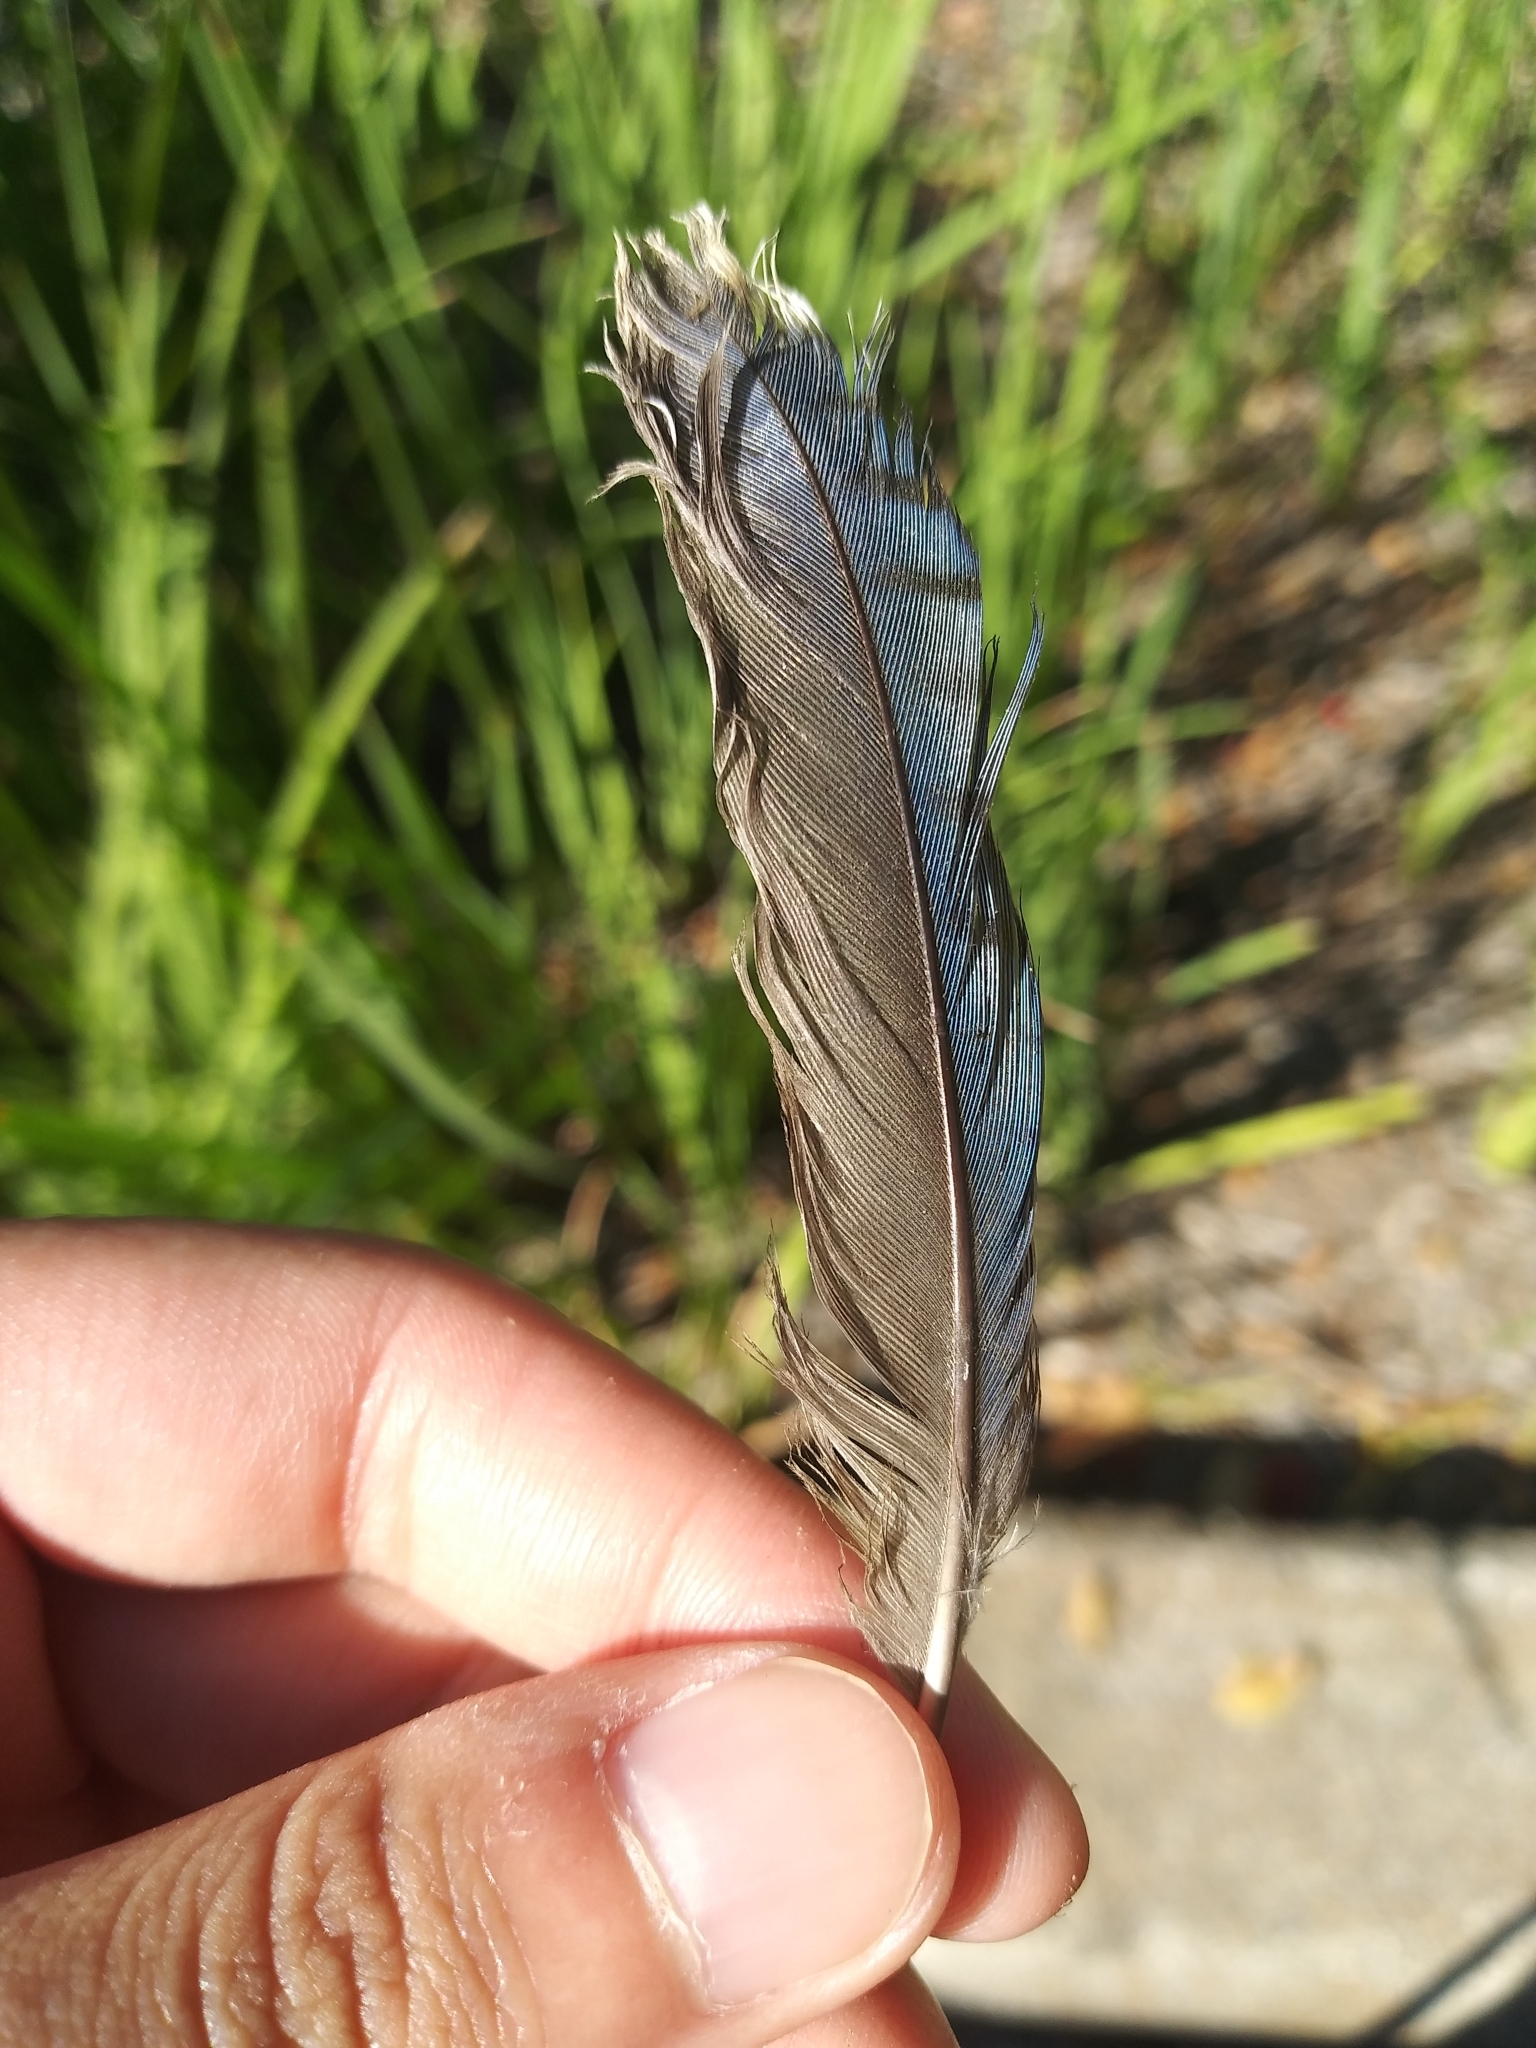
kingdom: Animalia
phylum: Chordata
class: Aves
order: Passeriformes
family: Corvidae
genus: Cyanocitta
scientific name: Cyanocitta cristata
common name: Blue jay
